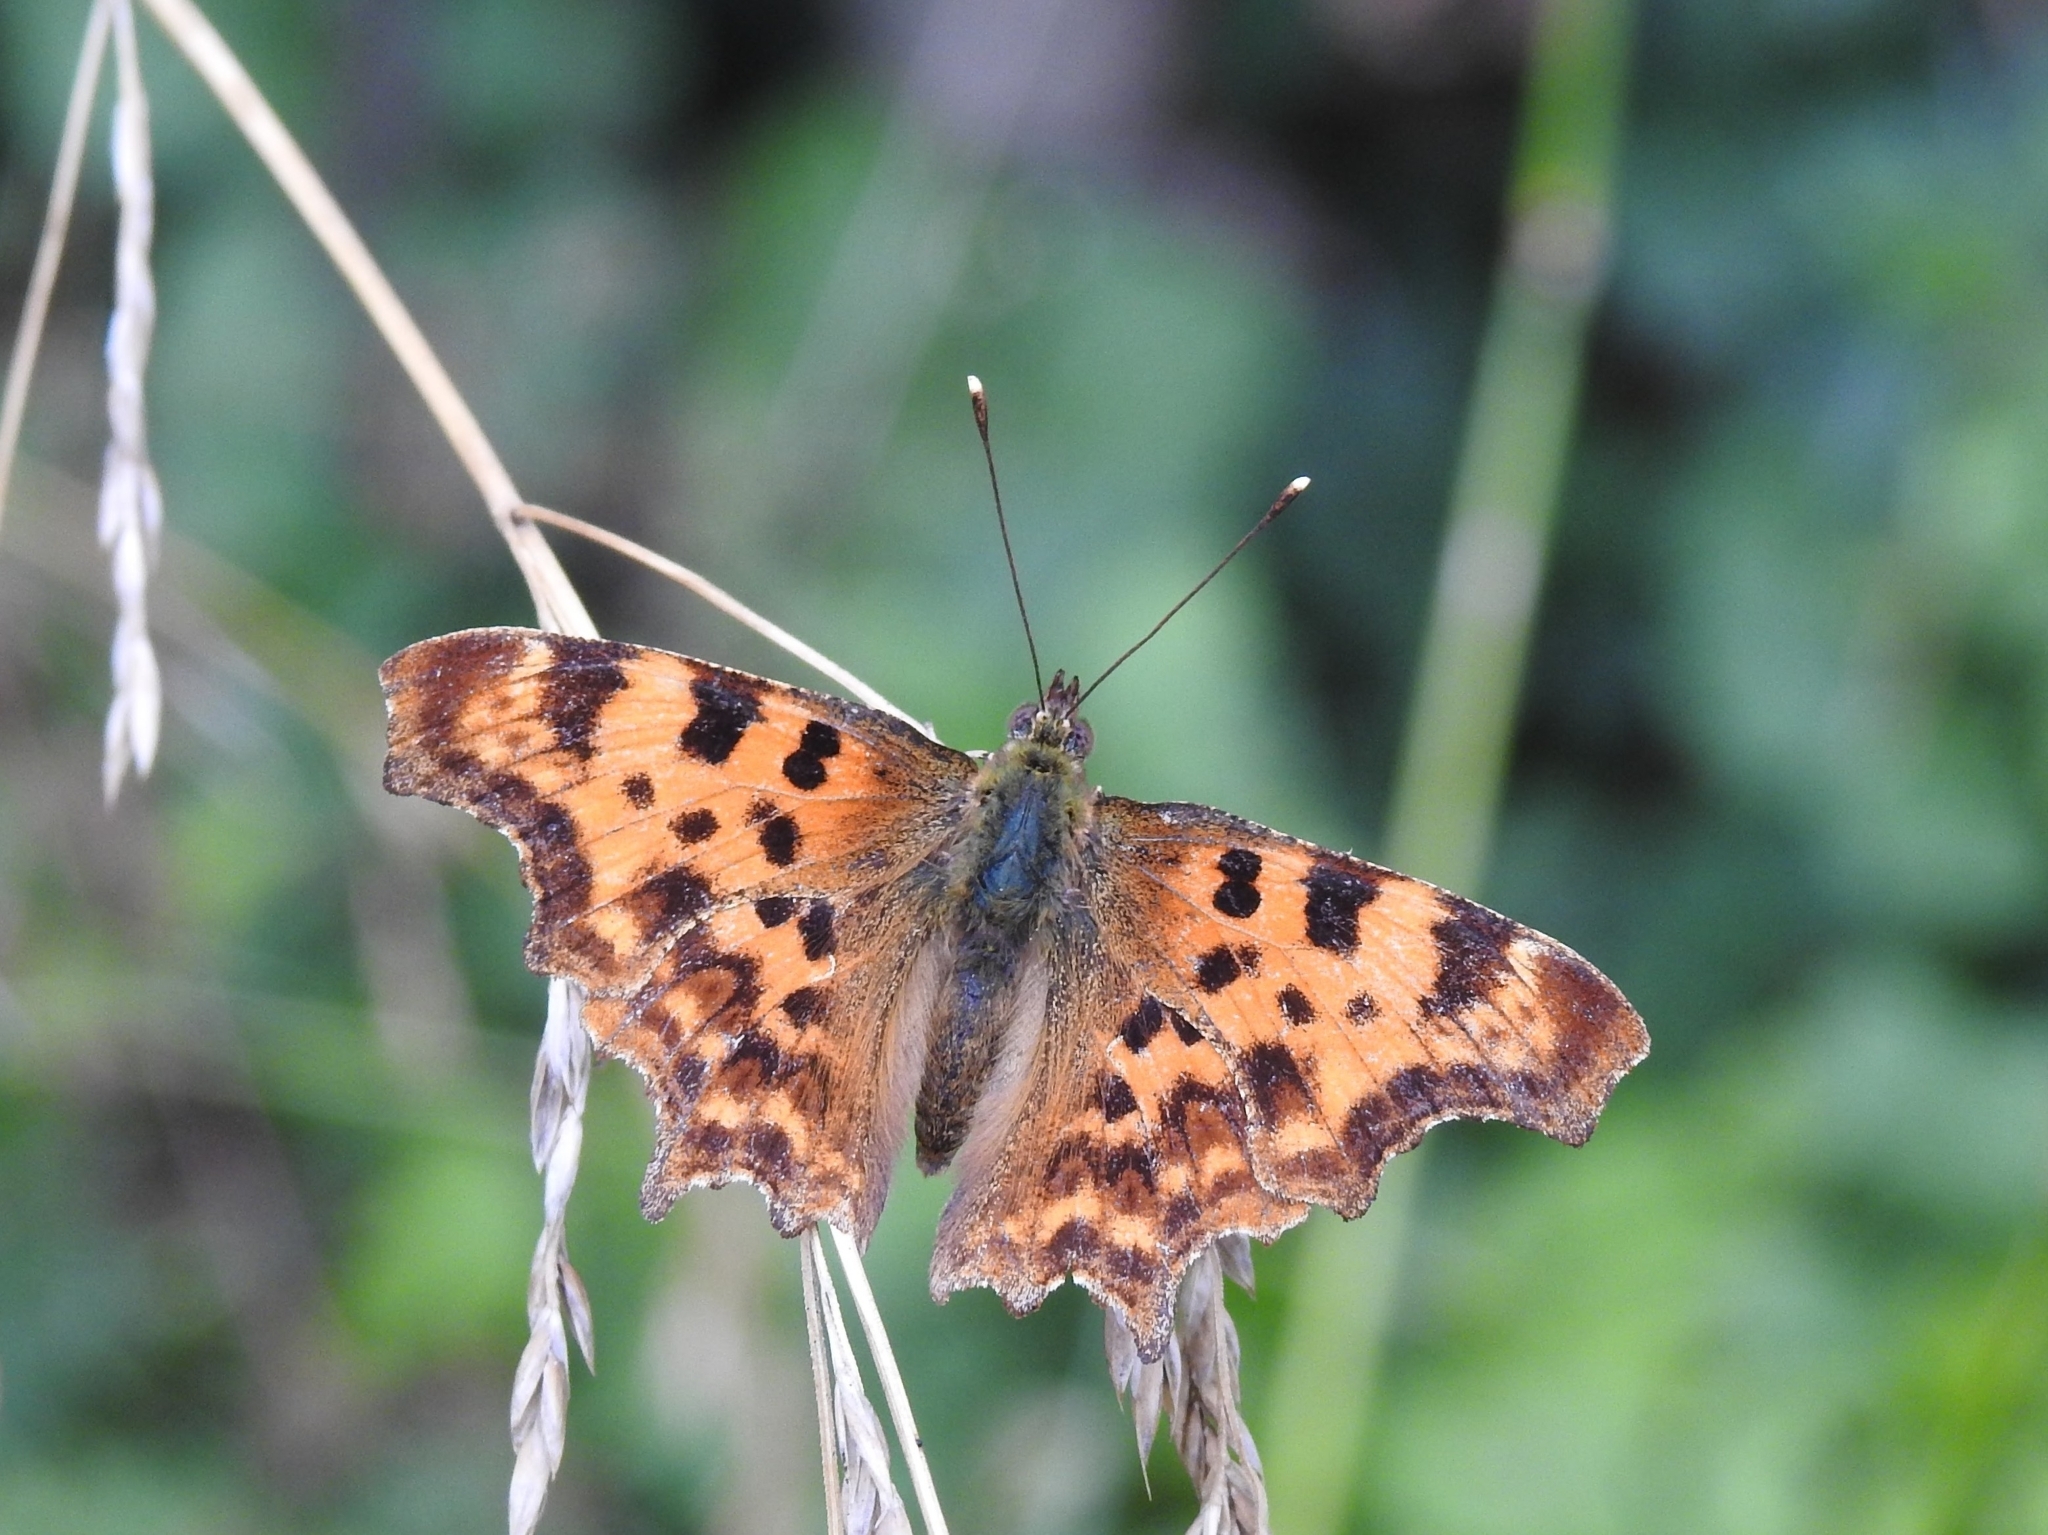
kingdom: Animalia
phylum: Arthropoda
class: Insecta
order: Lepidoptera
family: Nymphalidae
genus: Polygonia
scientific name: Polygonia c-album
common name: Comma
